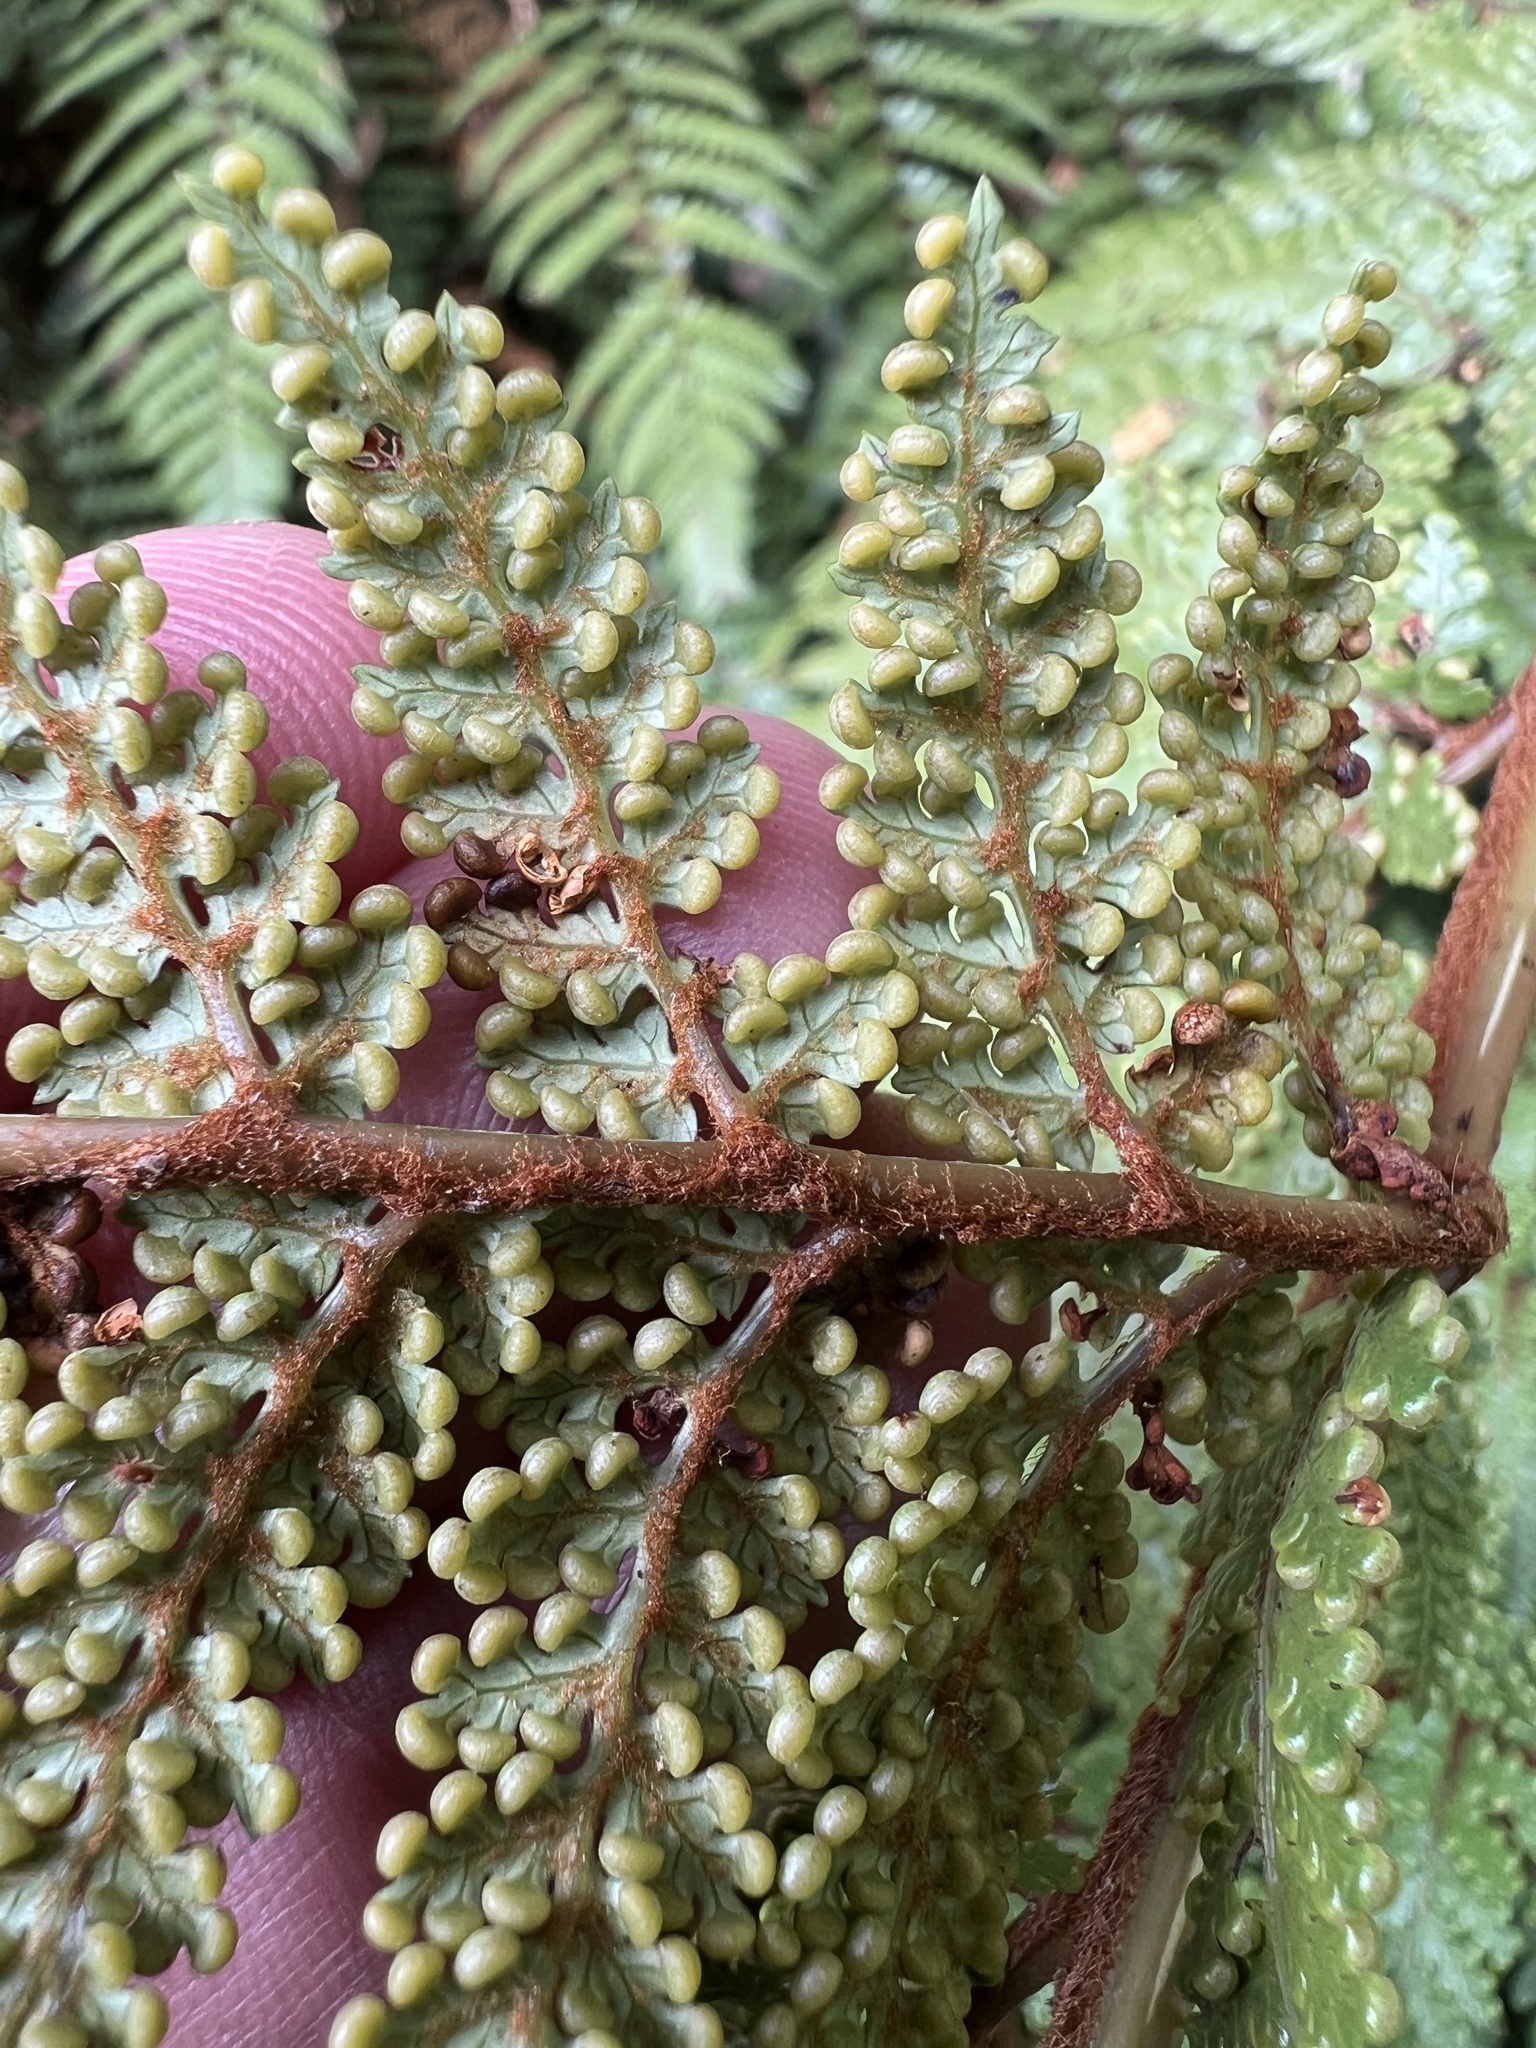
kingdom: Plantae
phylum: Tracheophyta
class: Polypodiopsida
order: Cyatheales
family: Dicksoniaceae
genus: Dicksonia
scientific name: Dicksonia lanata
